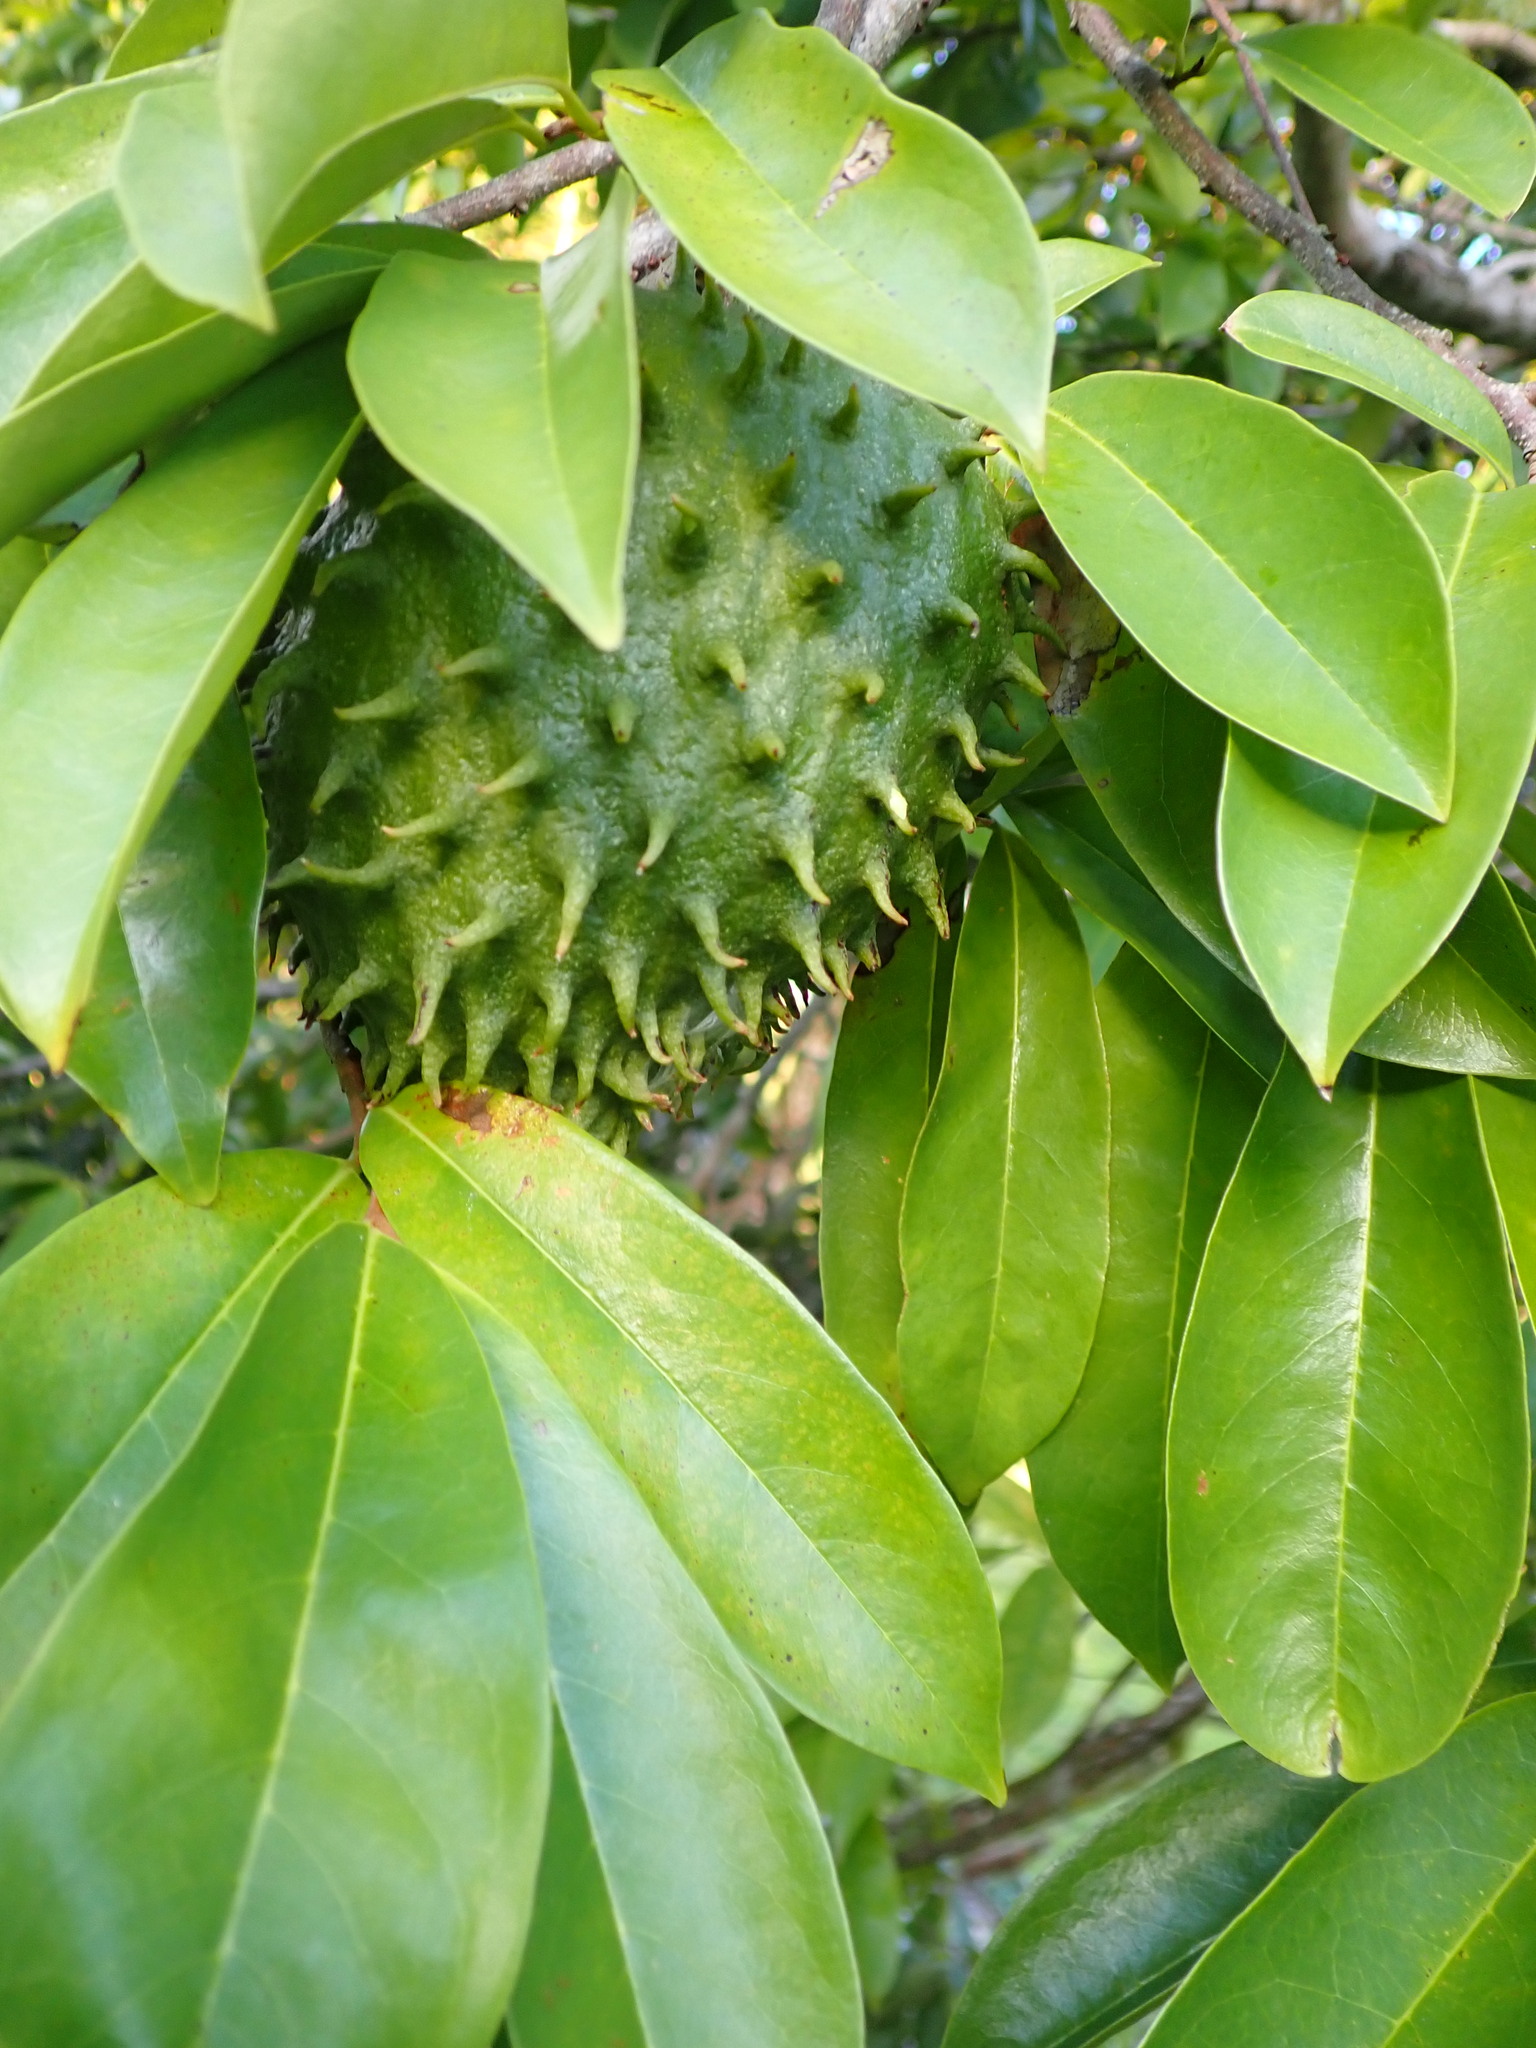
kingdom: Plantae
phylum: Tracheophyta
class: Magnoliopsida
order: Magnoliales
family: Annonaceae
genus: Annona
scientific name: Annona muricata
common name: Soursop
